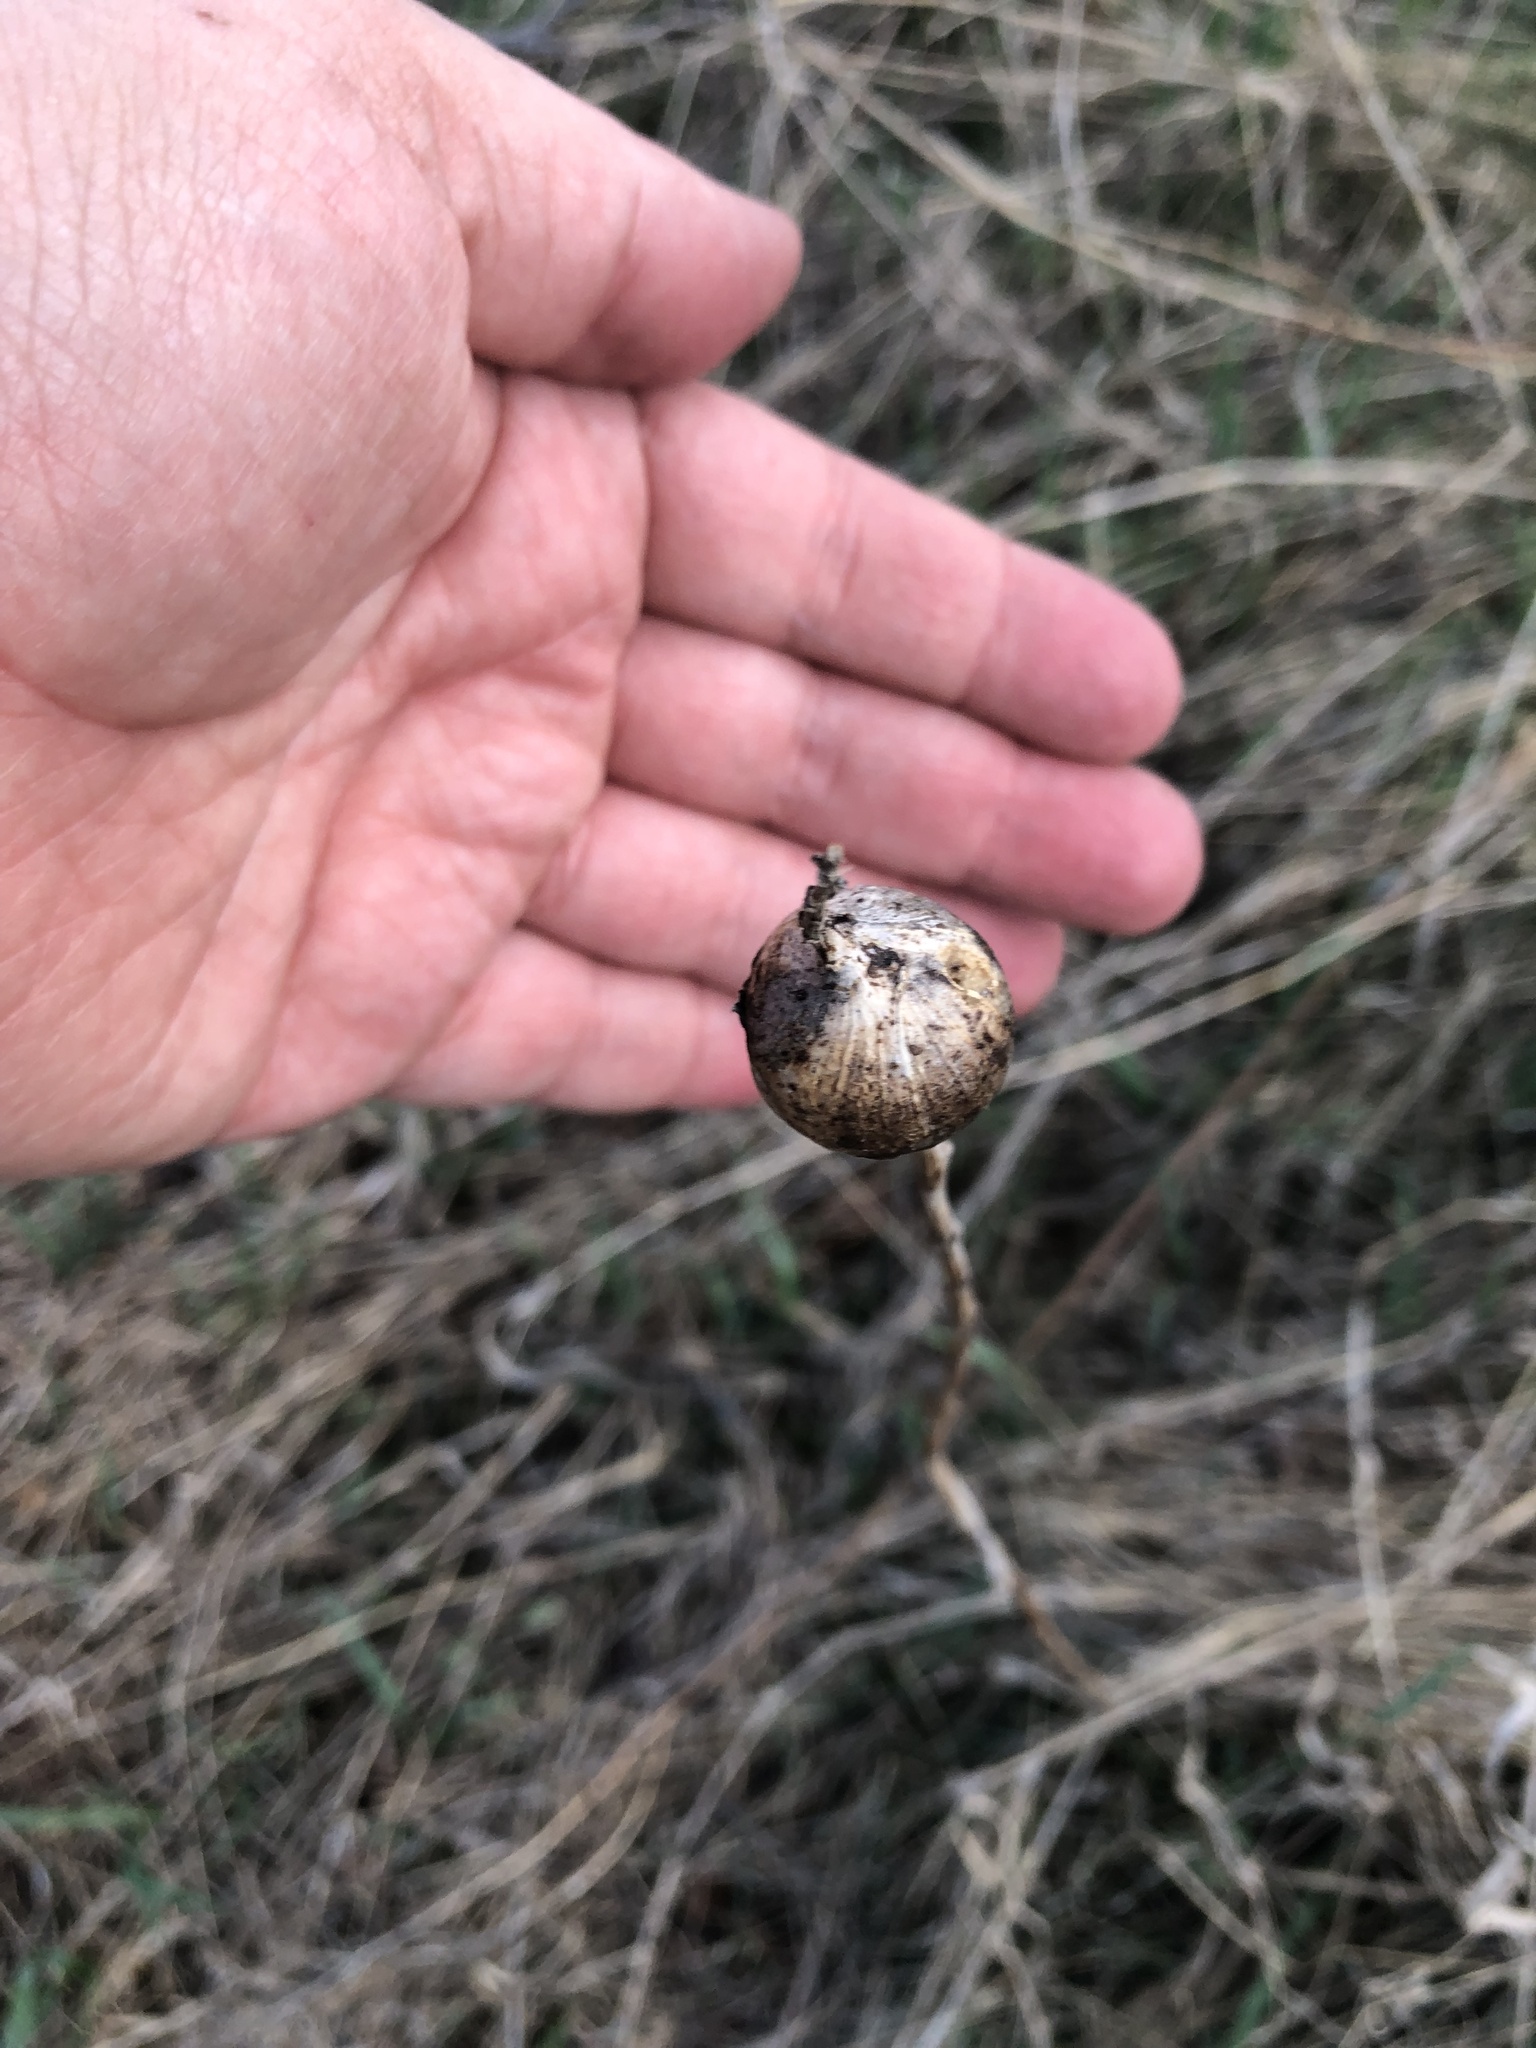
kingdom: Animalia
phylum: Arthropoda
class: Insecta
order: Diptera
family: Tephritidae
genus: Eurosta
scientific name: Eurosta solidaginis
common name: Goldenrod gall fly
